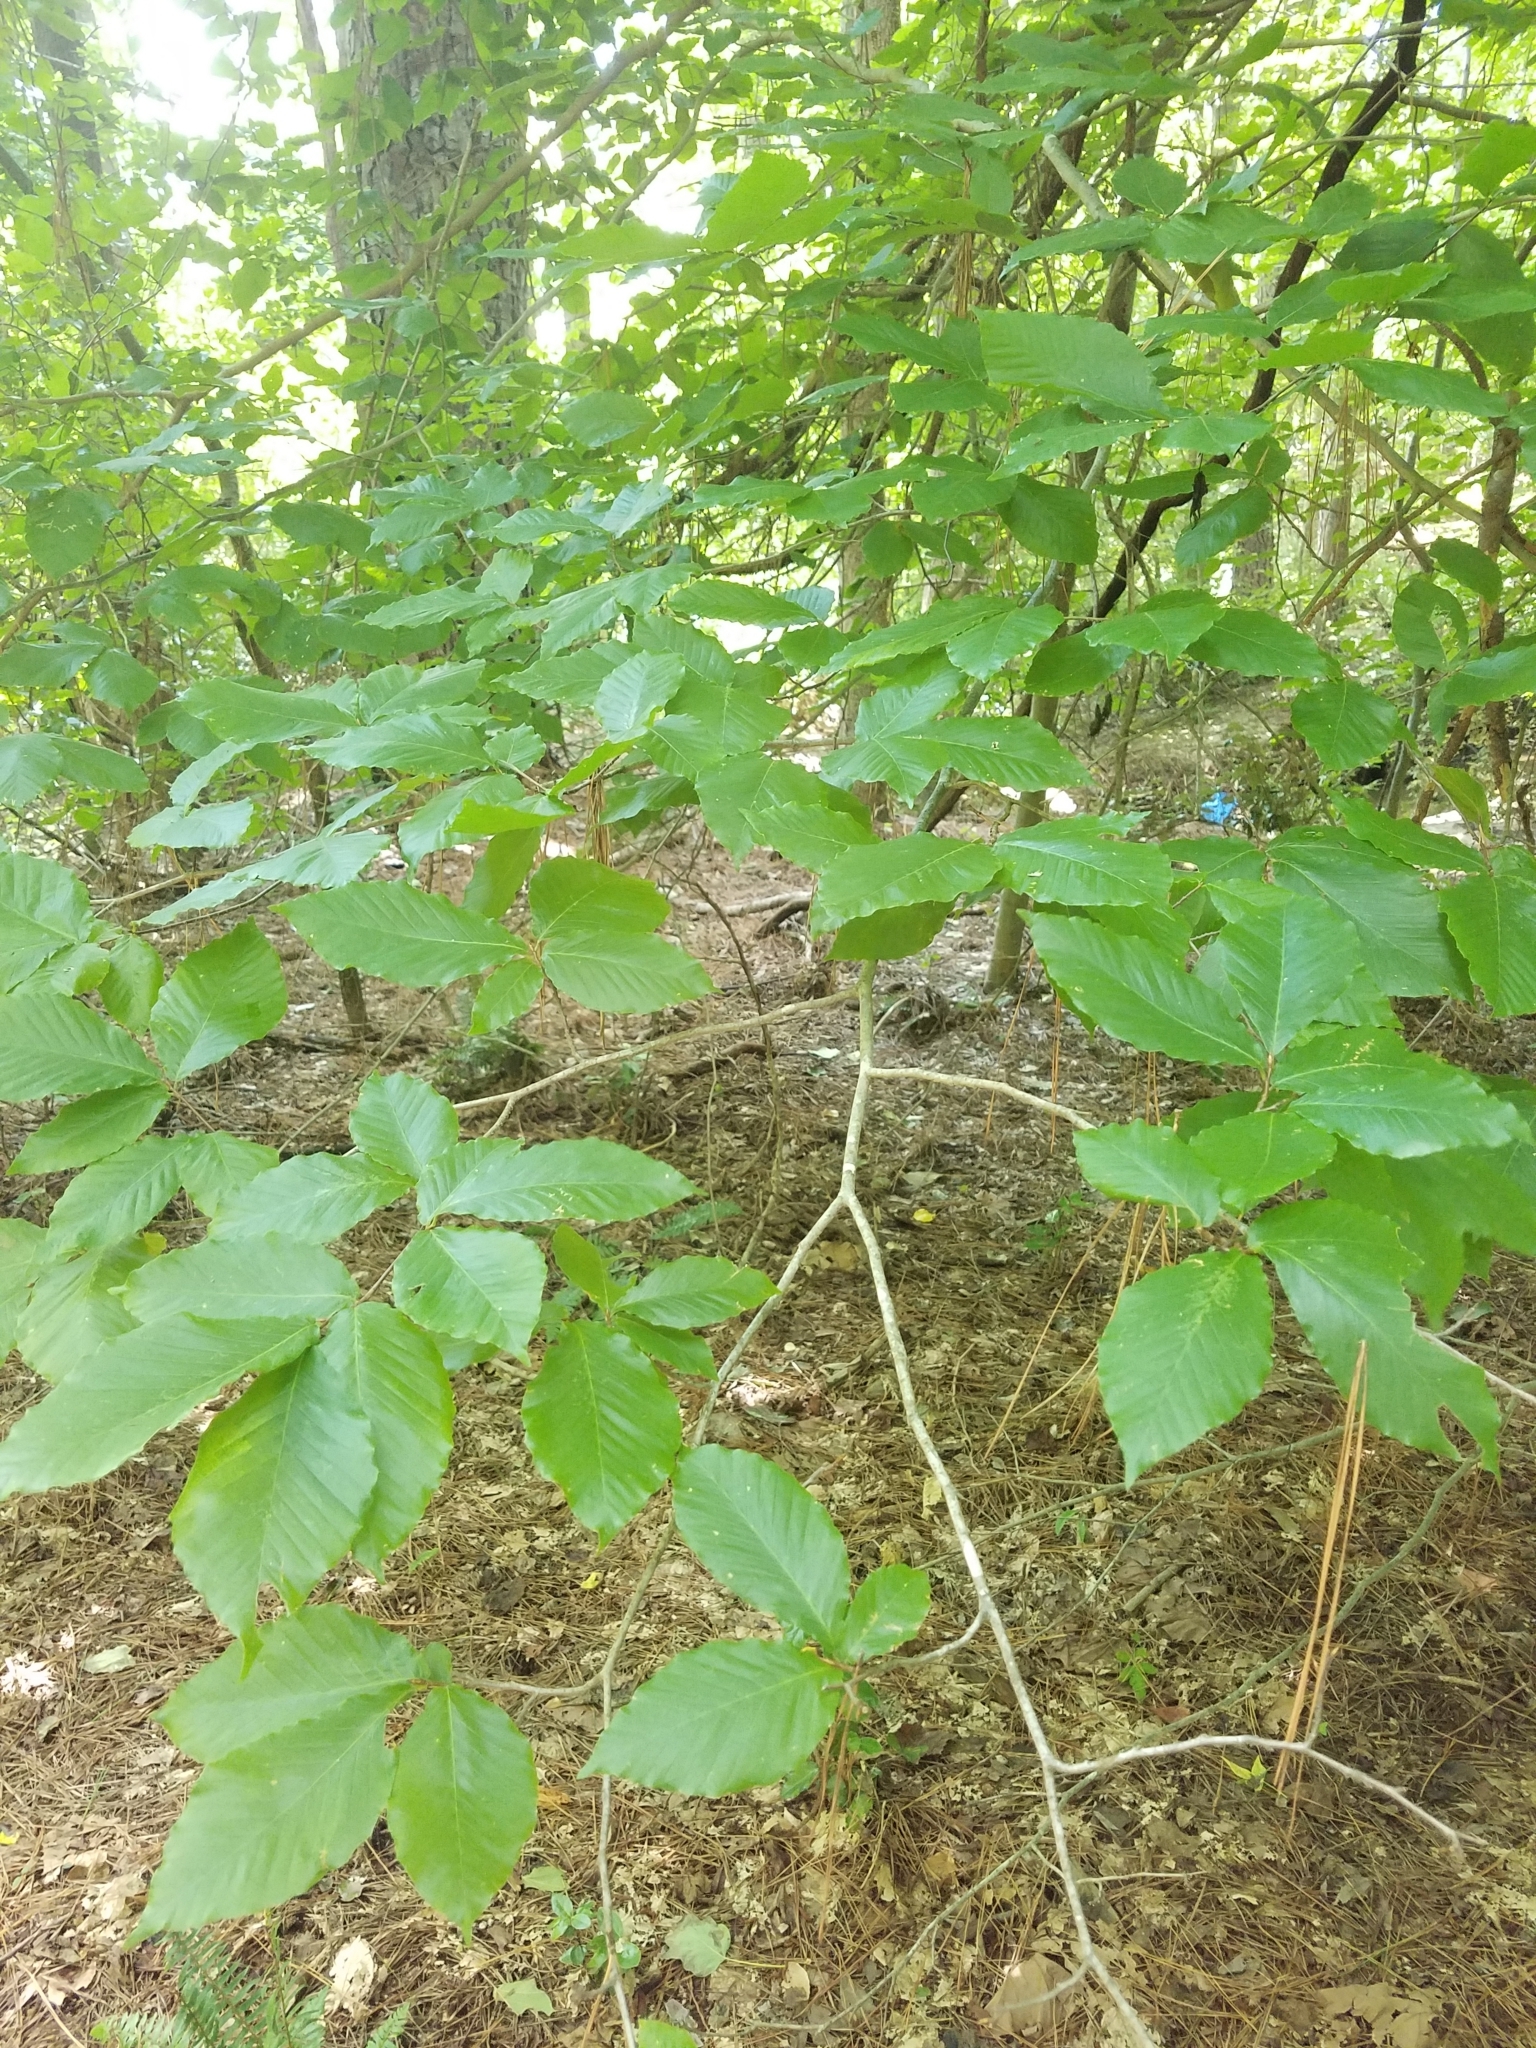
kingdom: Plantae
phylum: Tracheophyta
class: Magnoliopsida
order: Fagales
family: Fagaceae
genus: Fagus
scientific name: Fagus grandifolia
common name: American beech
